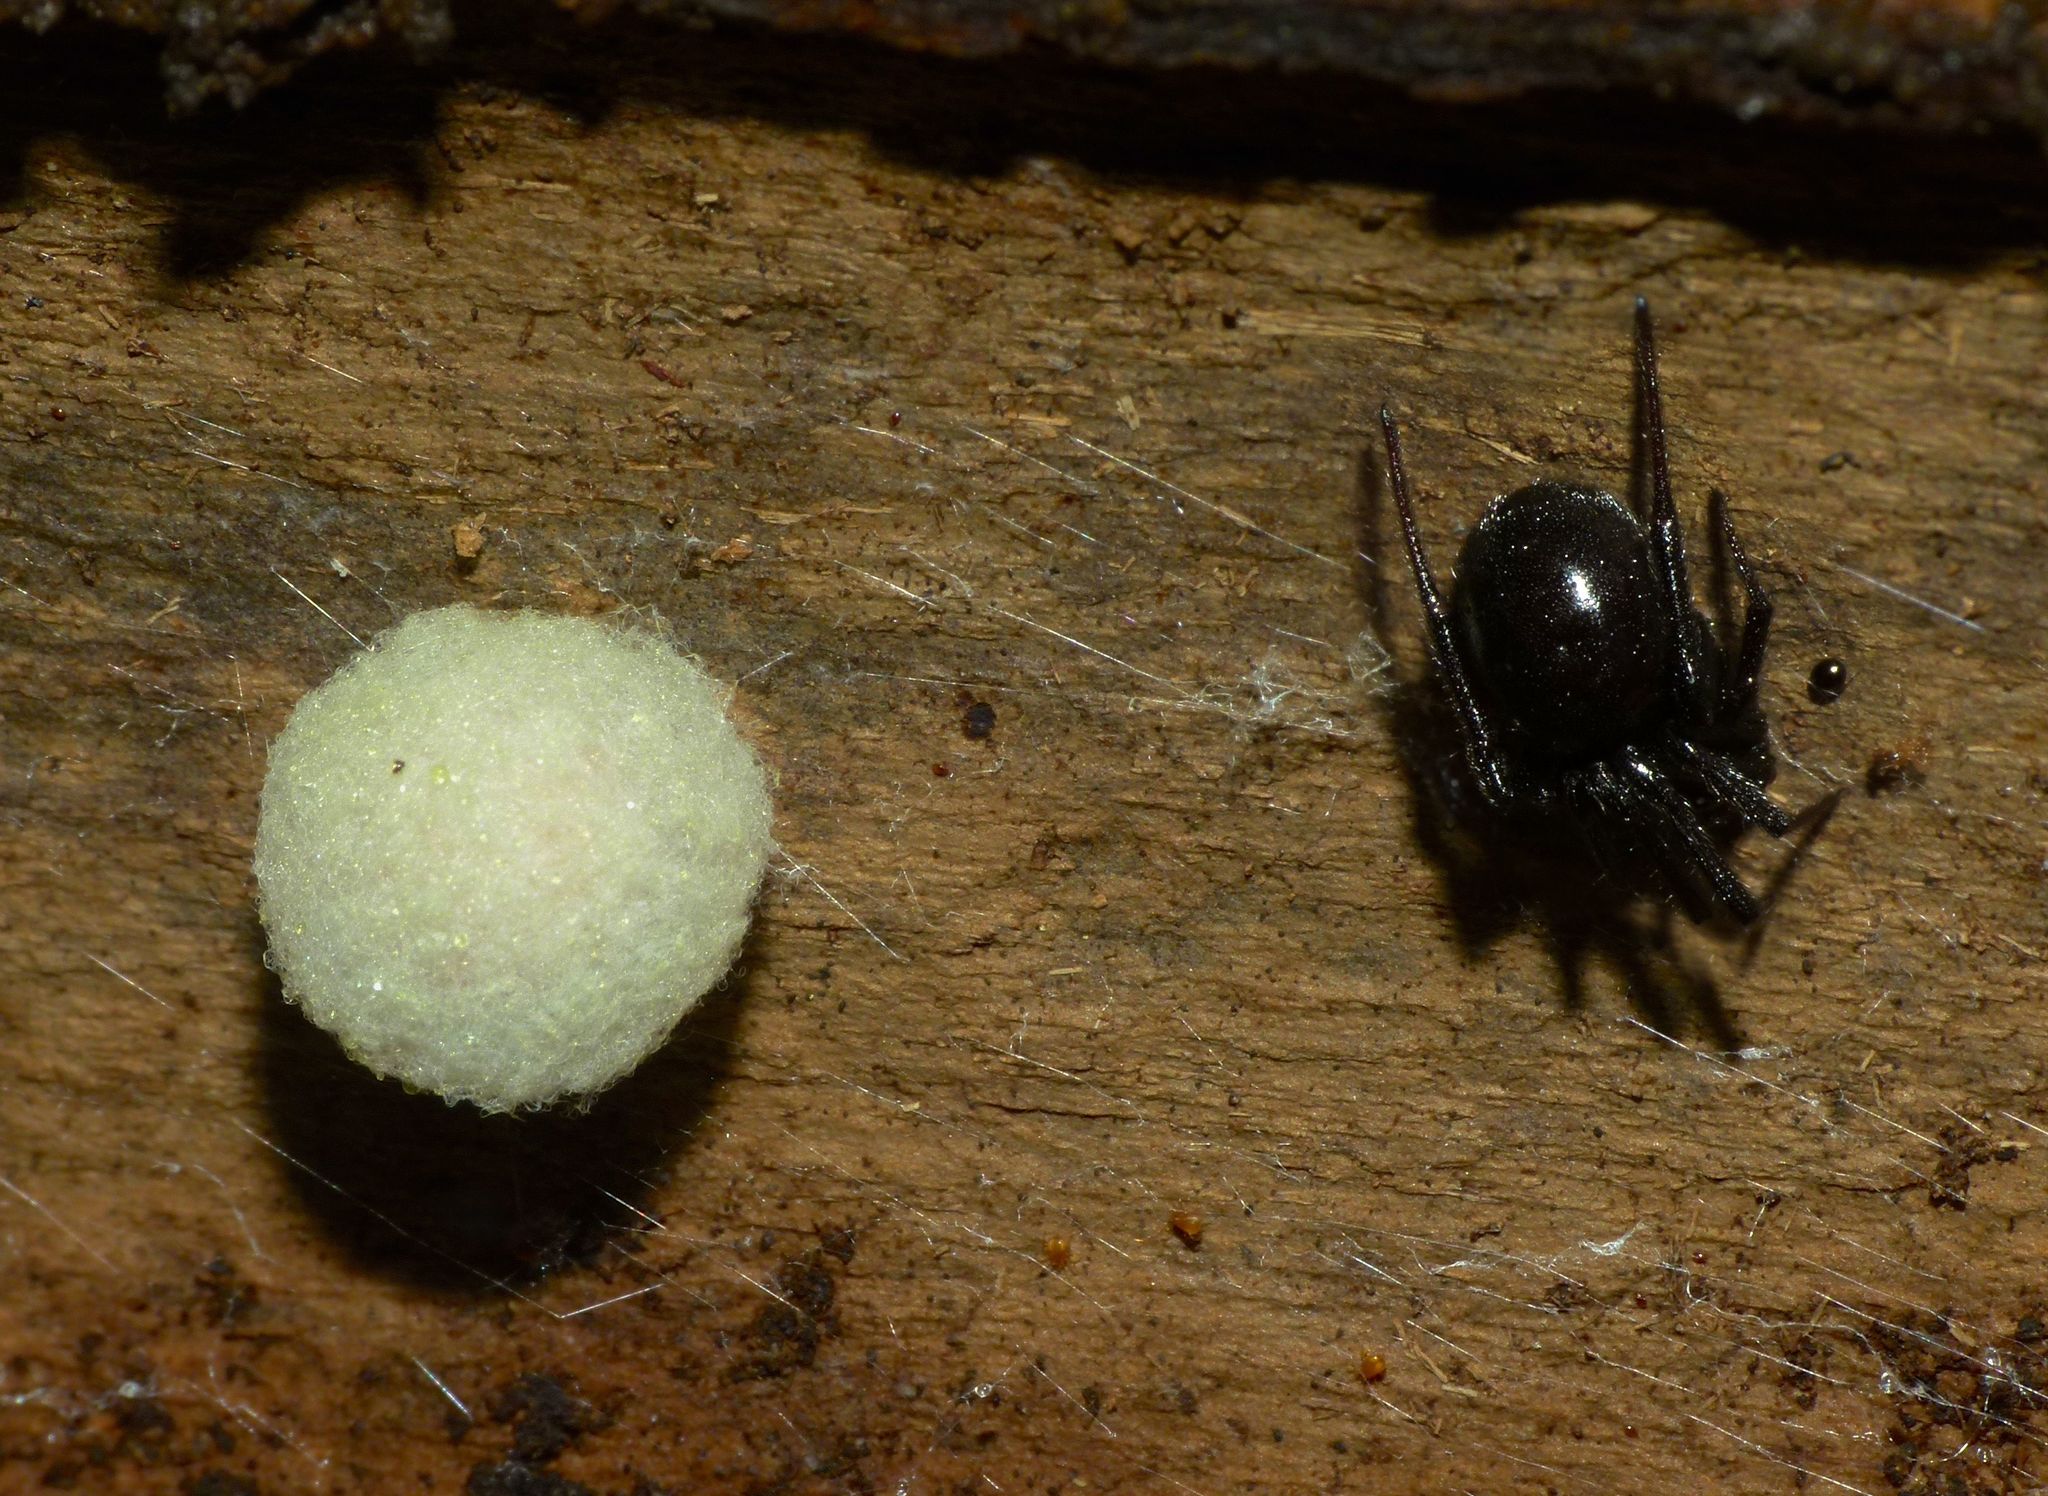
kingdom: Animalia
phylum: Arthropoda
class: Arachnida
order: Araneae
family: Theridiidae
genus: Steatoda
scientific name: Steatoda capensis
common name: Cobweb weaver
